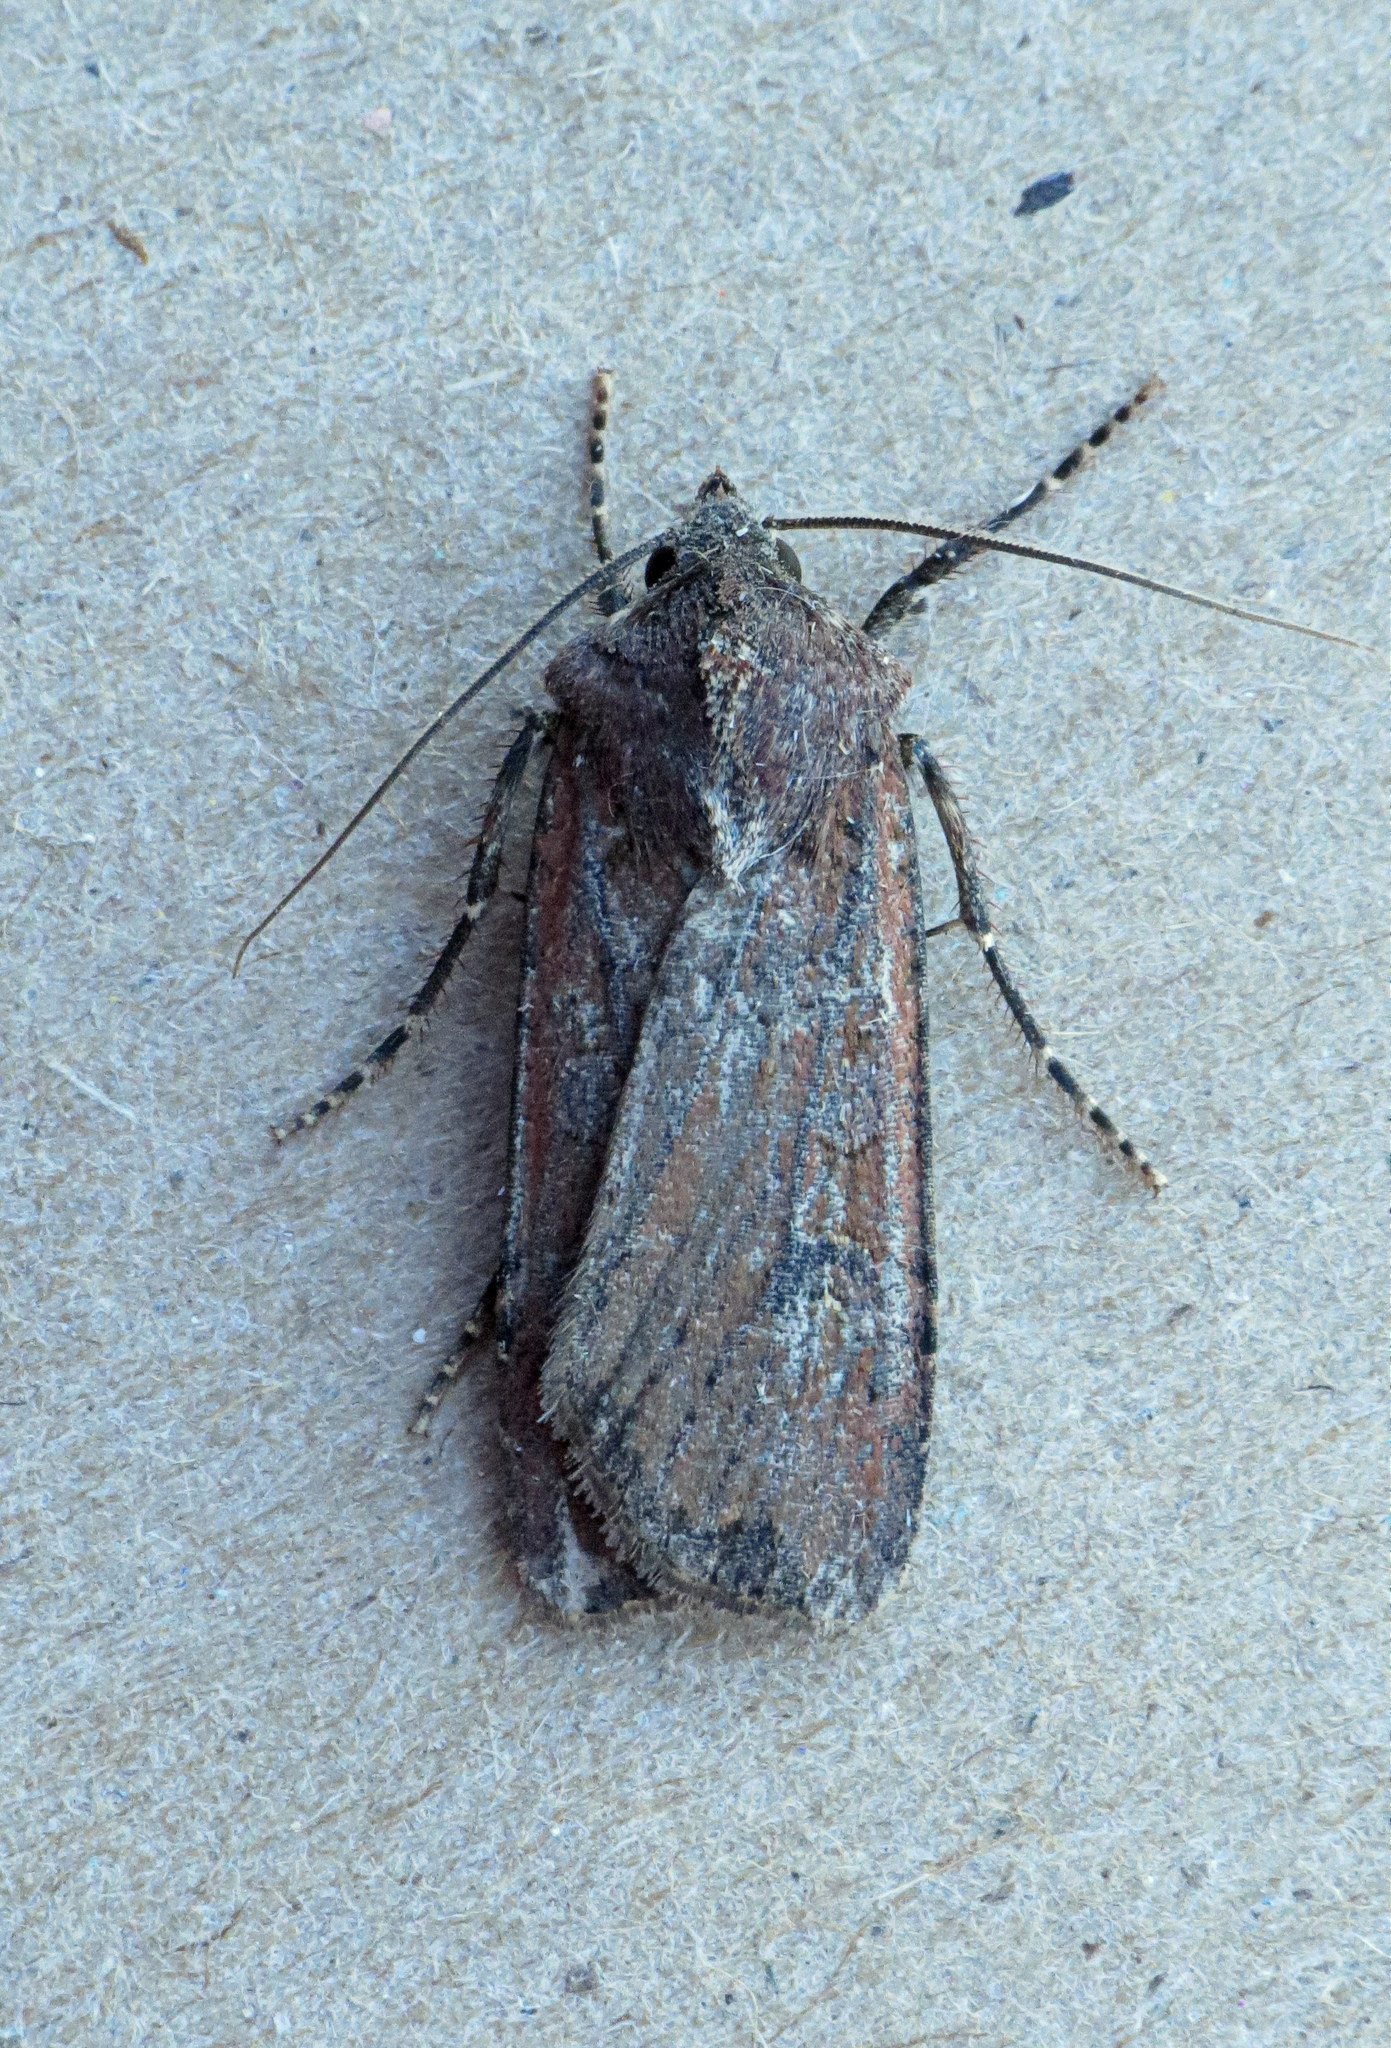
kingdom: Animalia
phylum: Arthropoda
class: Insecta
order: Lepidoptera
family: Noctuidae
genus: Peridroma
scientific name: Peridroma saucia
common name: Pearly underwing
